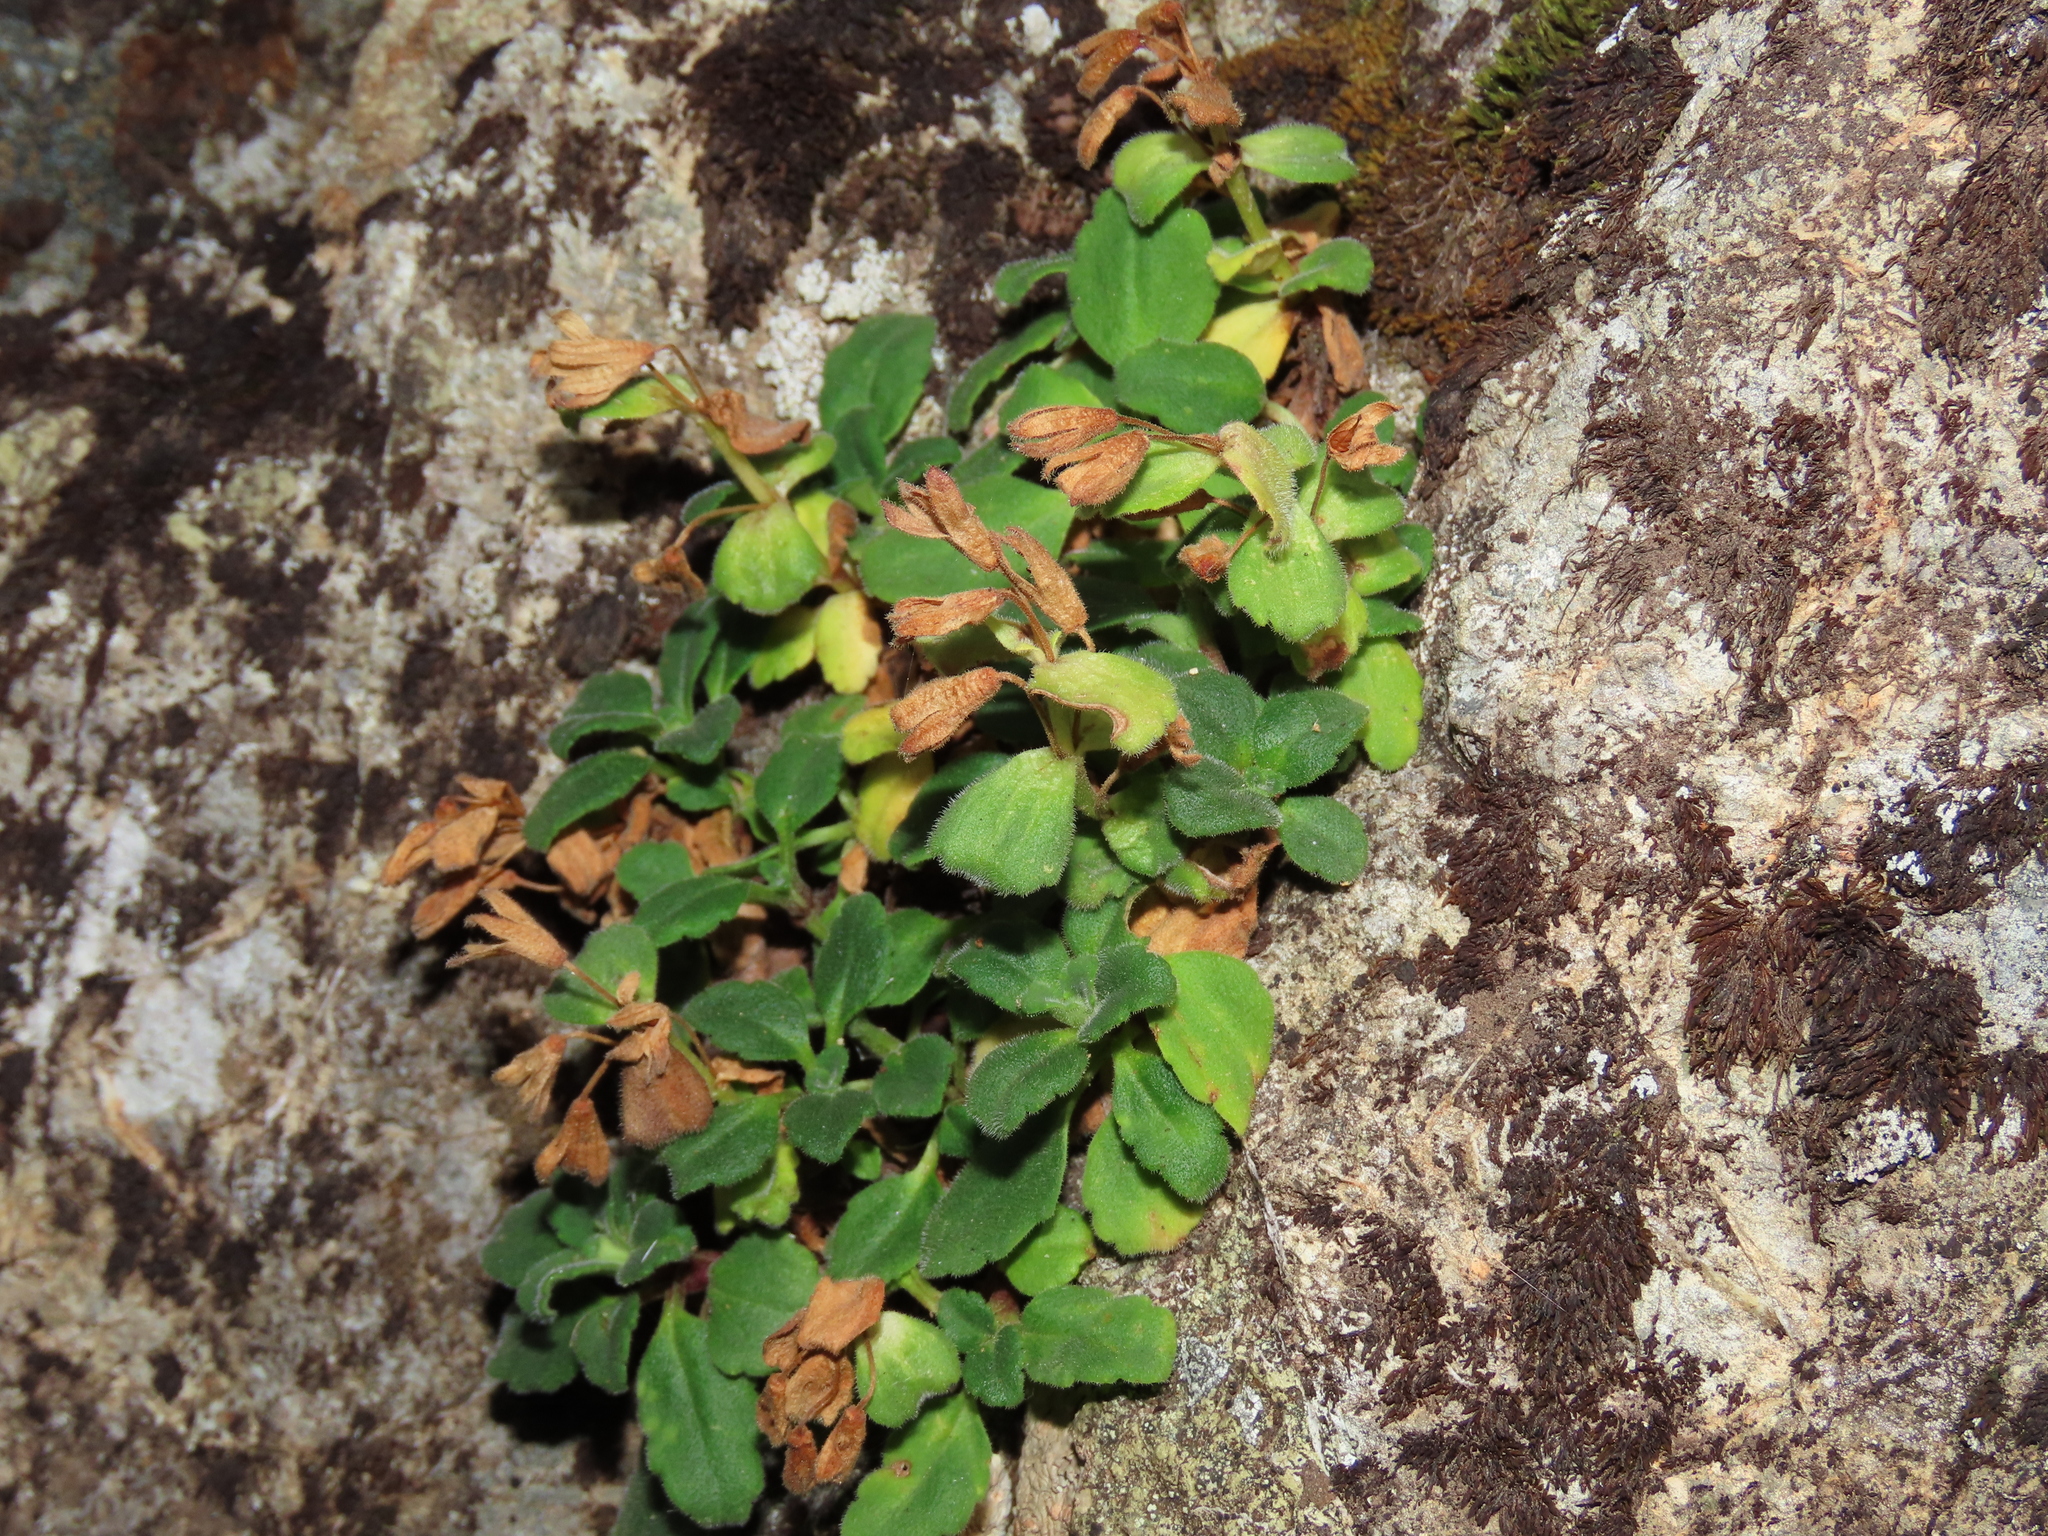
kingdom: Plantae
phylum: Tracheophyta
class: Magnoliopsida
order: Lamiales
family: Plantaginaceae
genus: Ourisia
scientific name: Ourisia fragrans
